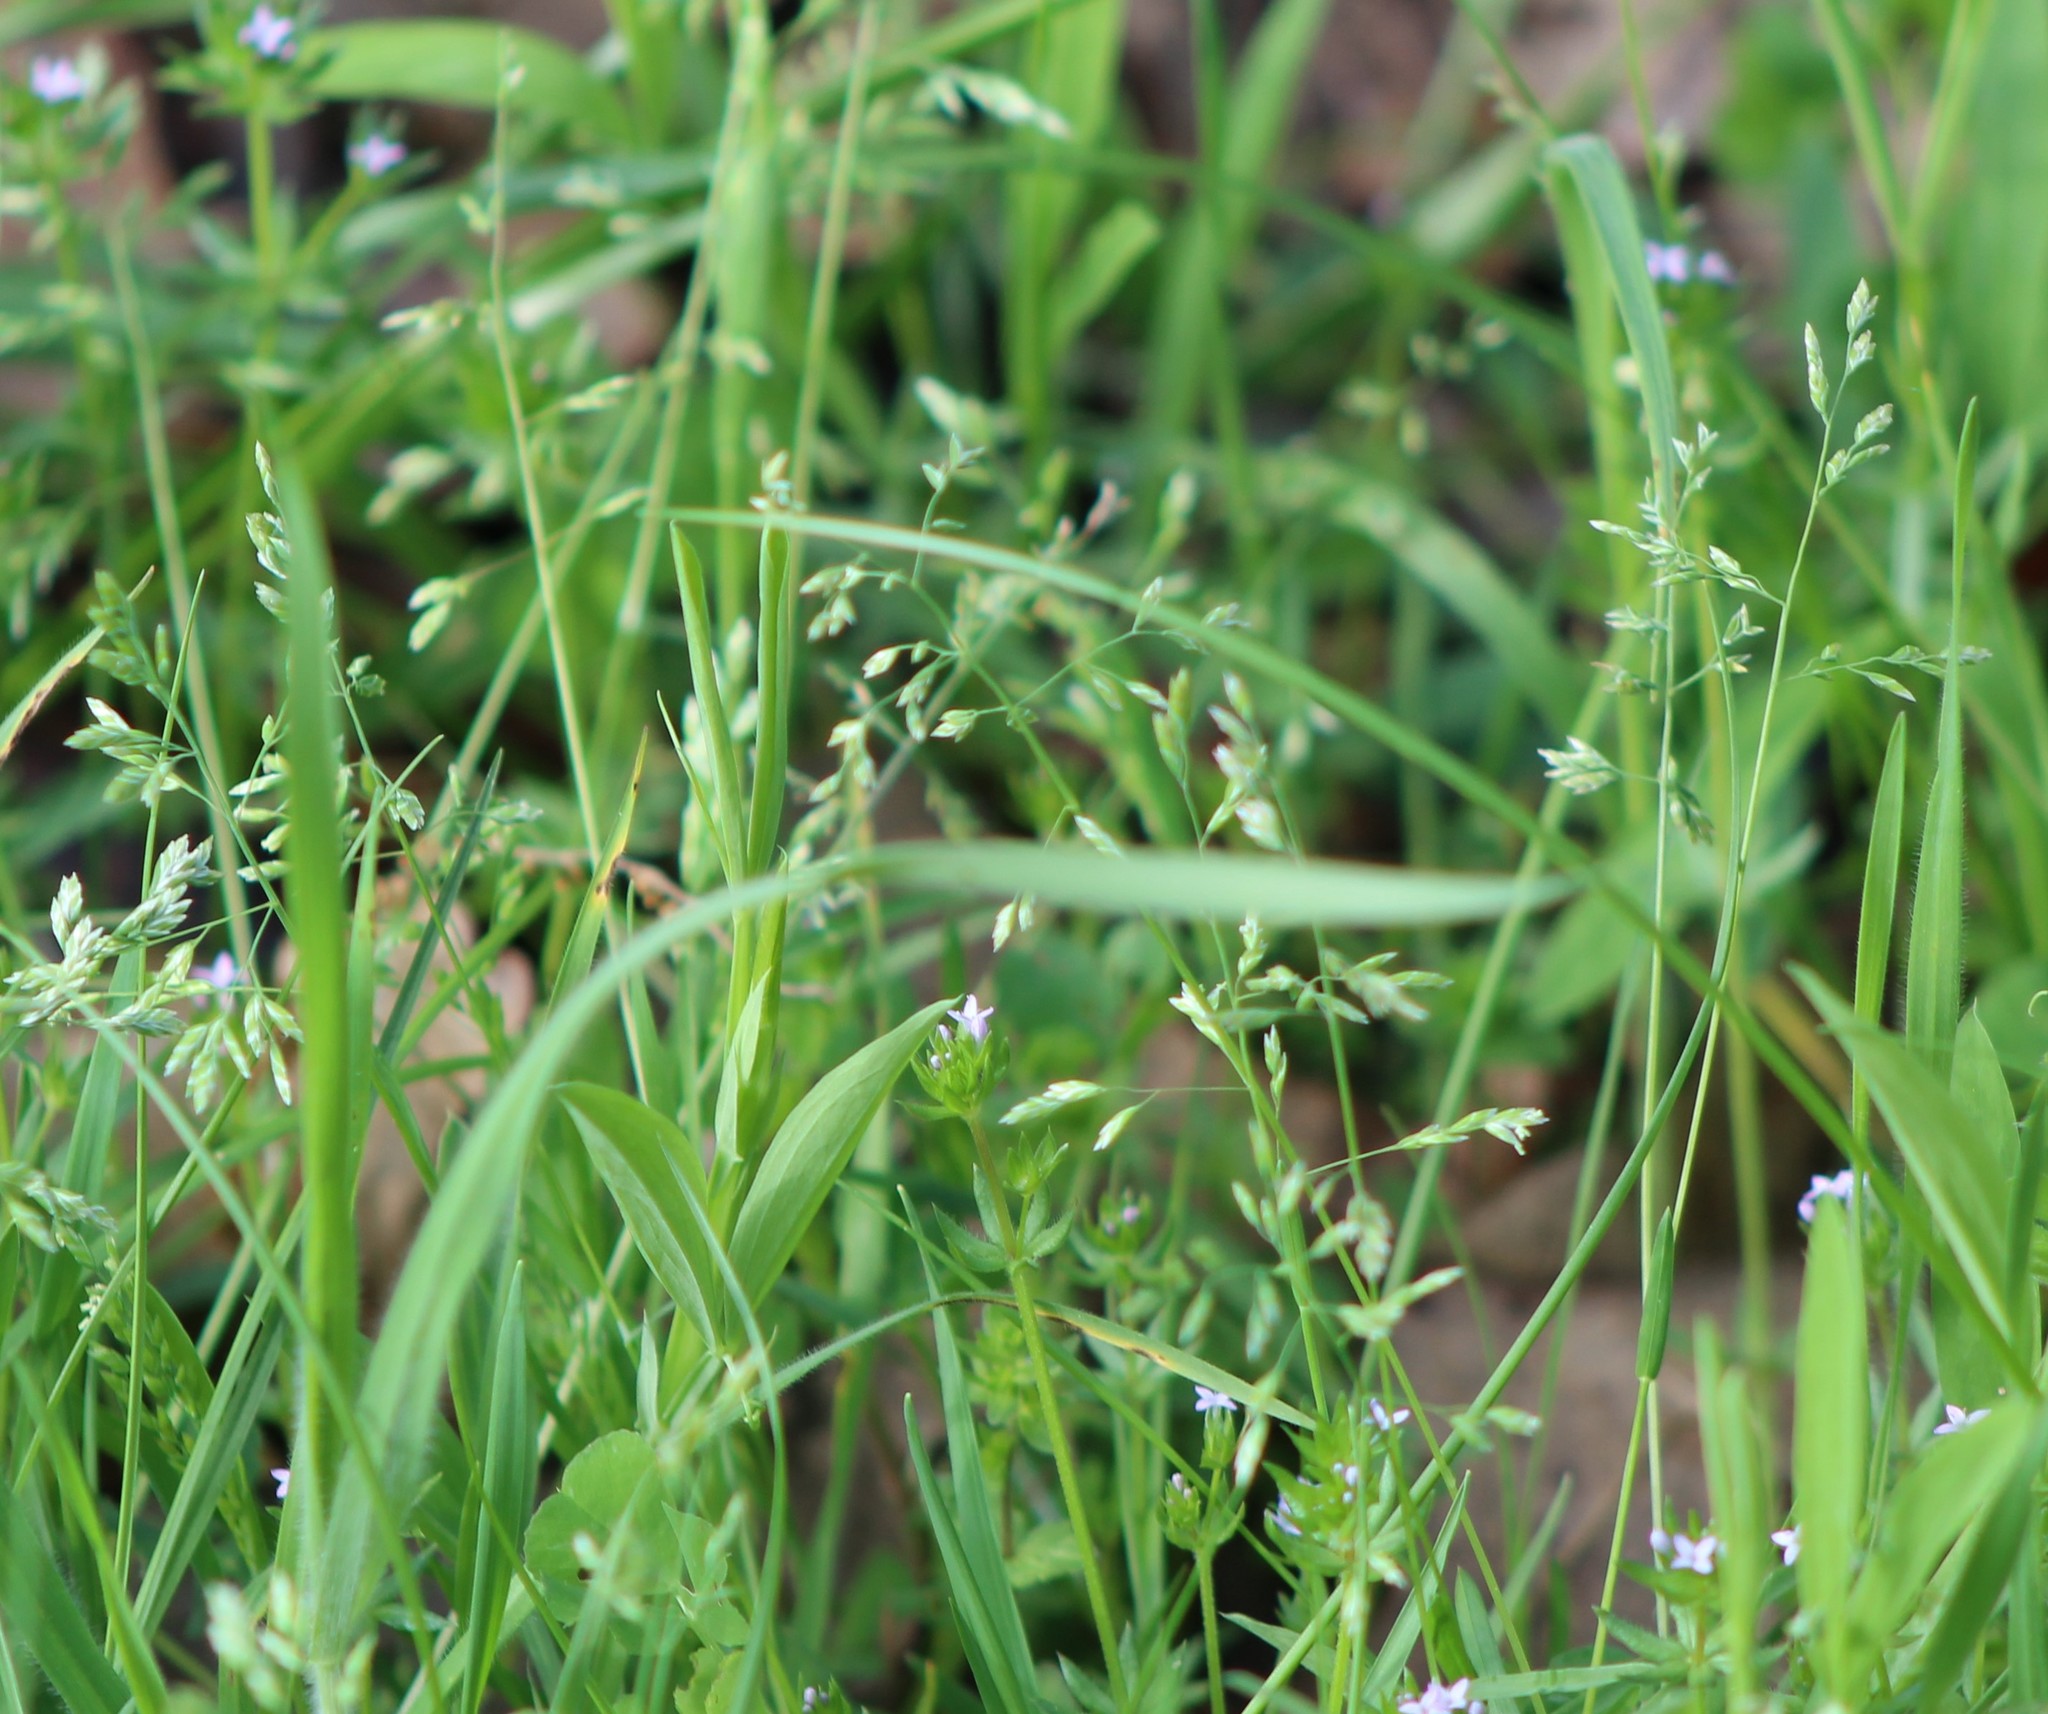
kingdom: Plantae
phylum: Tracheophyta
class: Liliopsida
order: Poales
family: Poaceae
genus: Poa
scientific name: Poa annua
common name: Annual bluegrass
